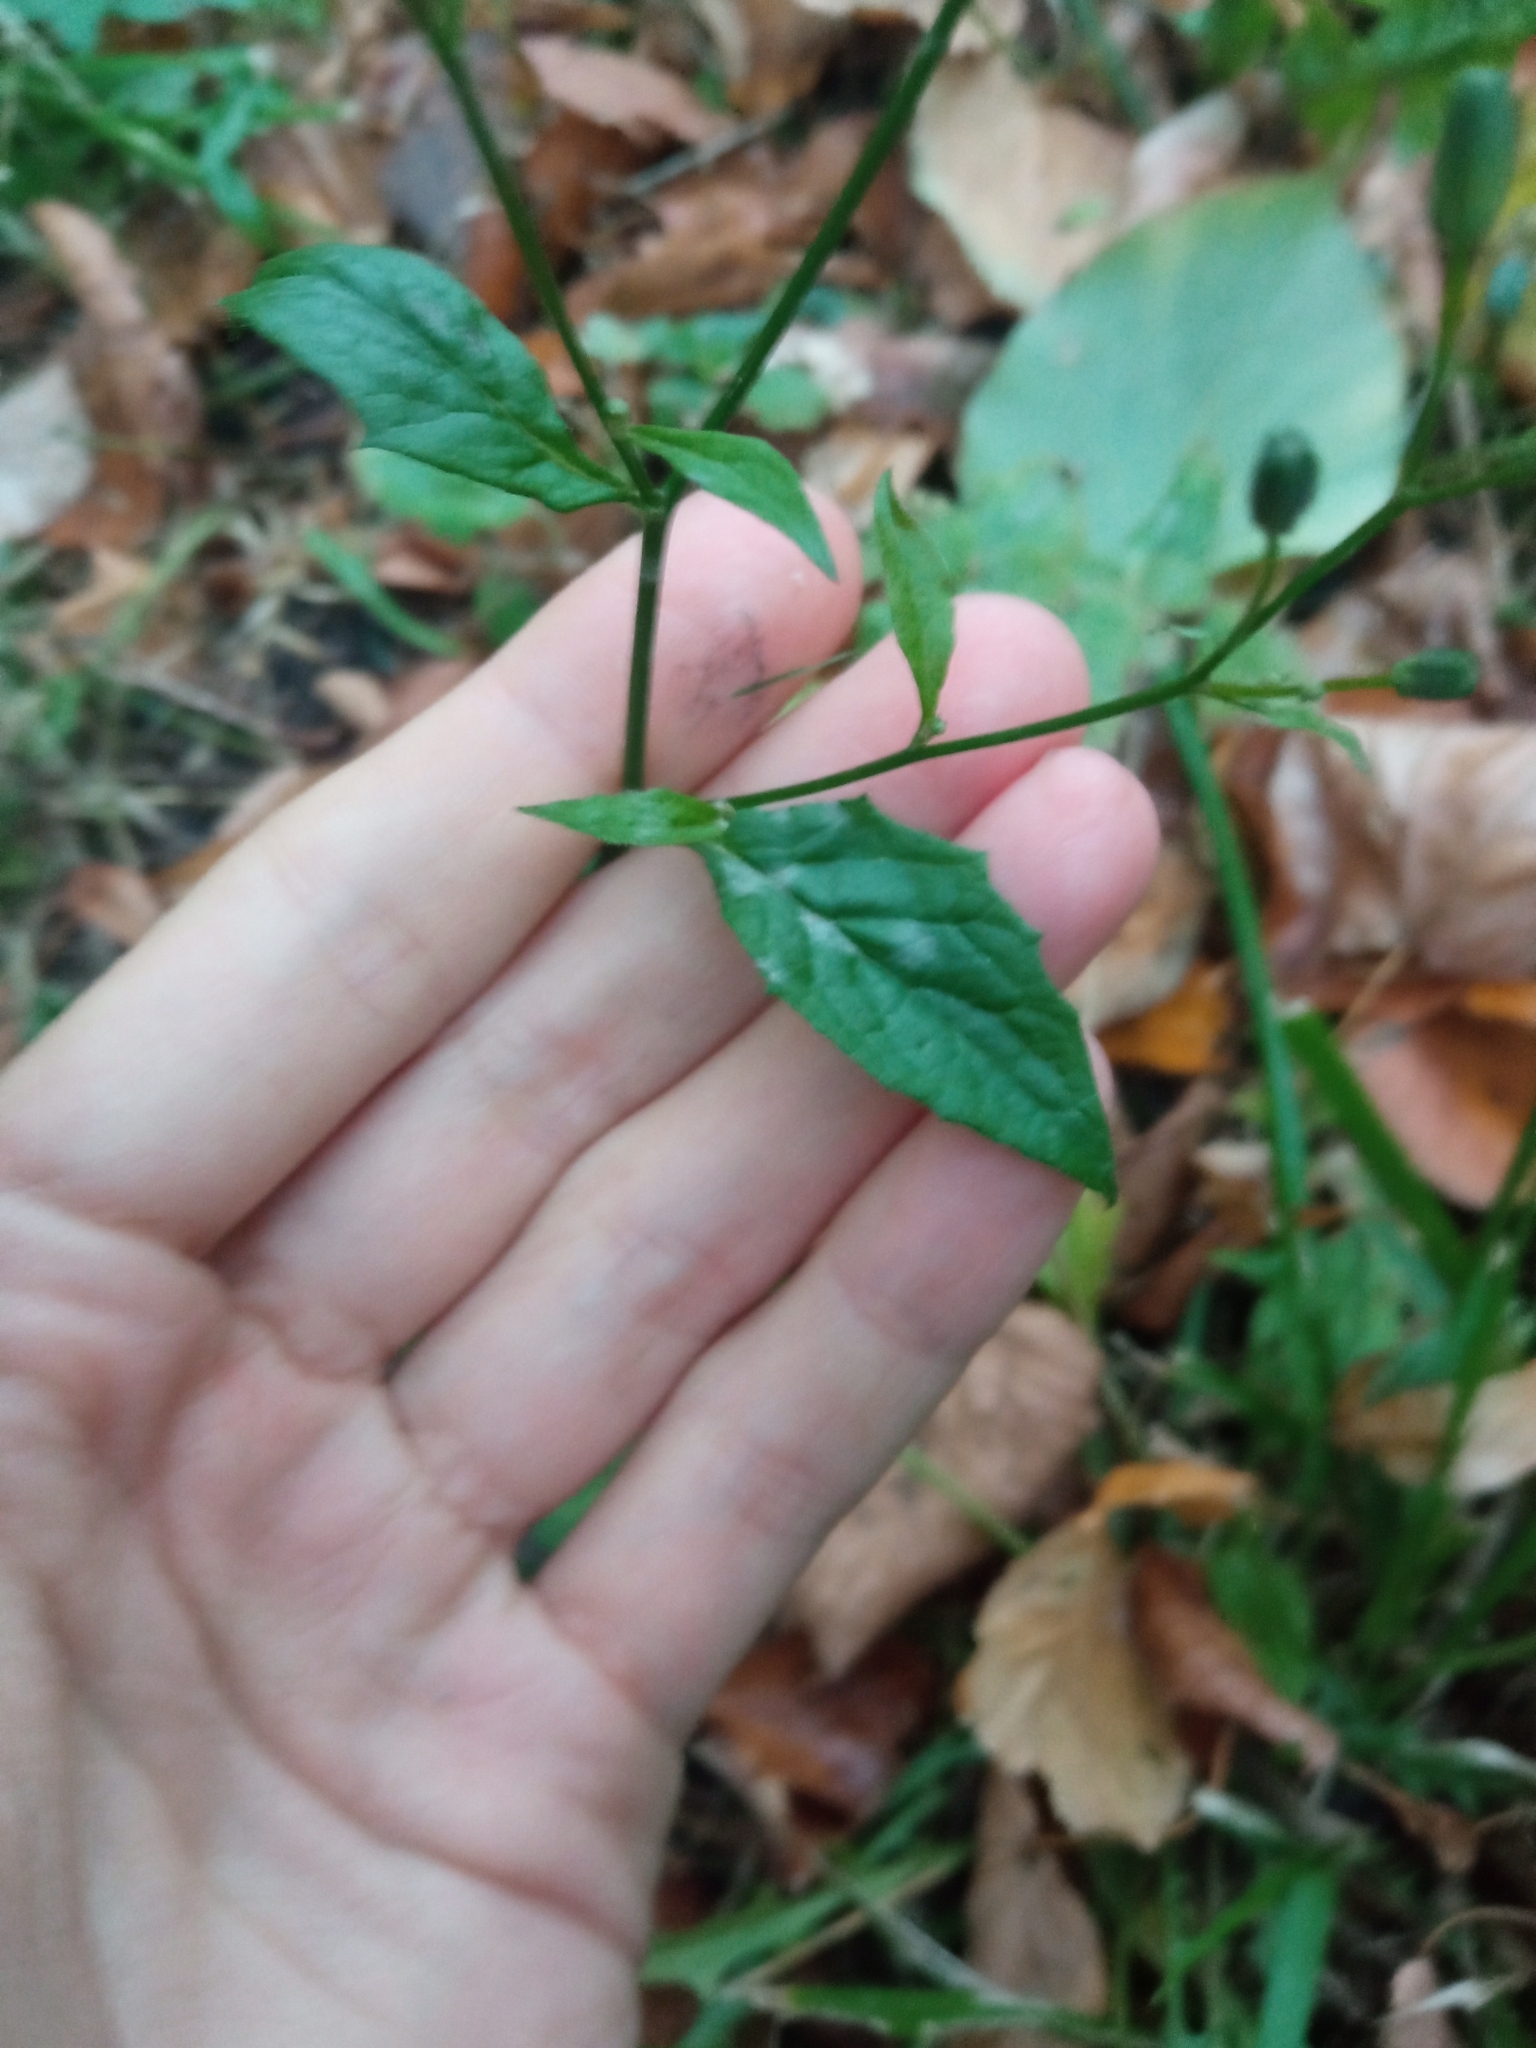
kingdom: Plantae
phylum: Tracheophyta
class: Magnoliopsida
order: Asterales
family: Asteraceae
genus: Lapsana
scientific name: Lapsana communis
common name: Nipplewort
